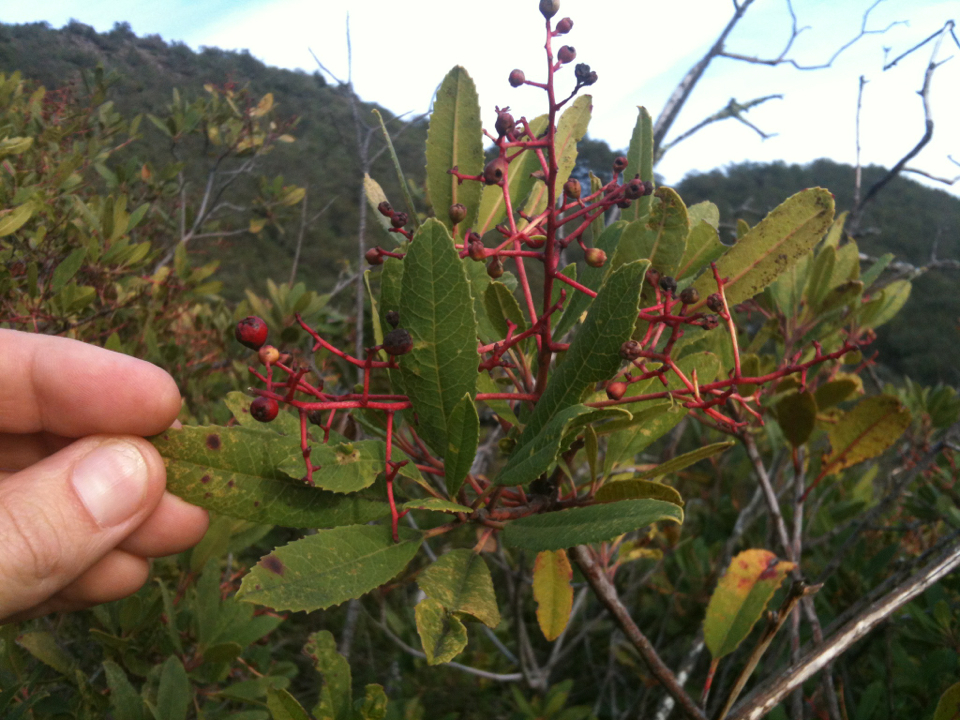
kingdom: Plantae
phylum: Tracheophyta
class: Magnoliopsida
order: Rosales
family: Rosaceae
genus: Heteromeles
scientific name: Heteromeles arbutifolia
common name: California-holly
